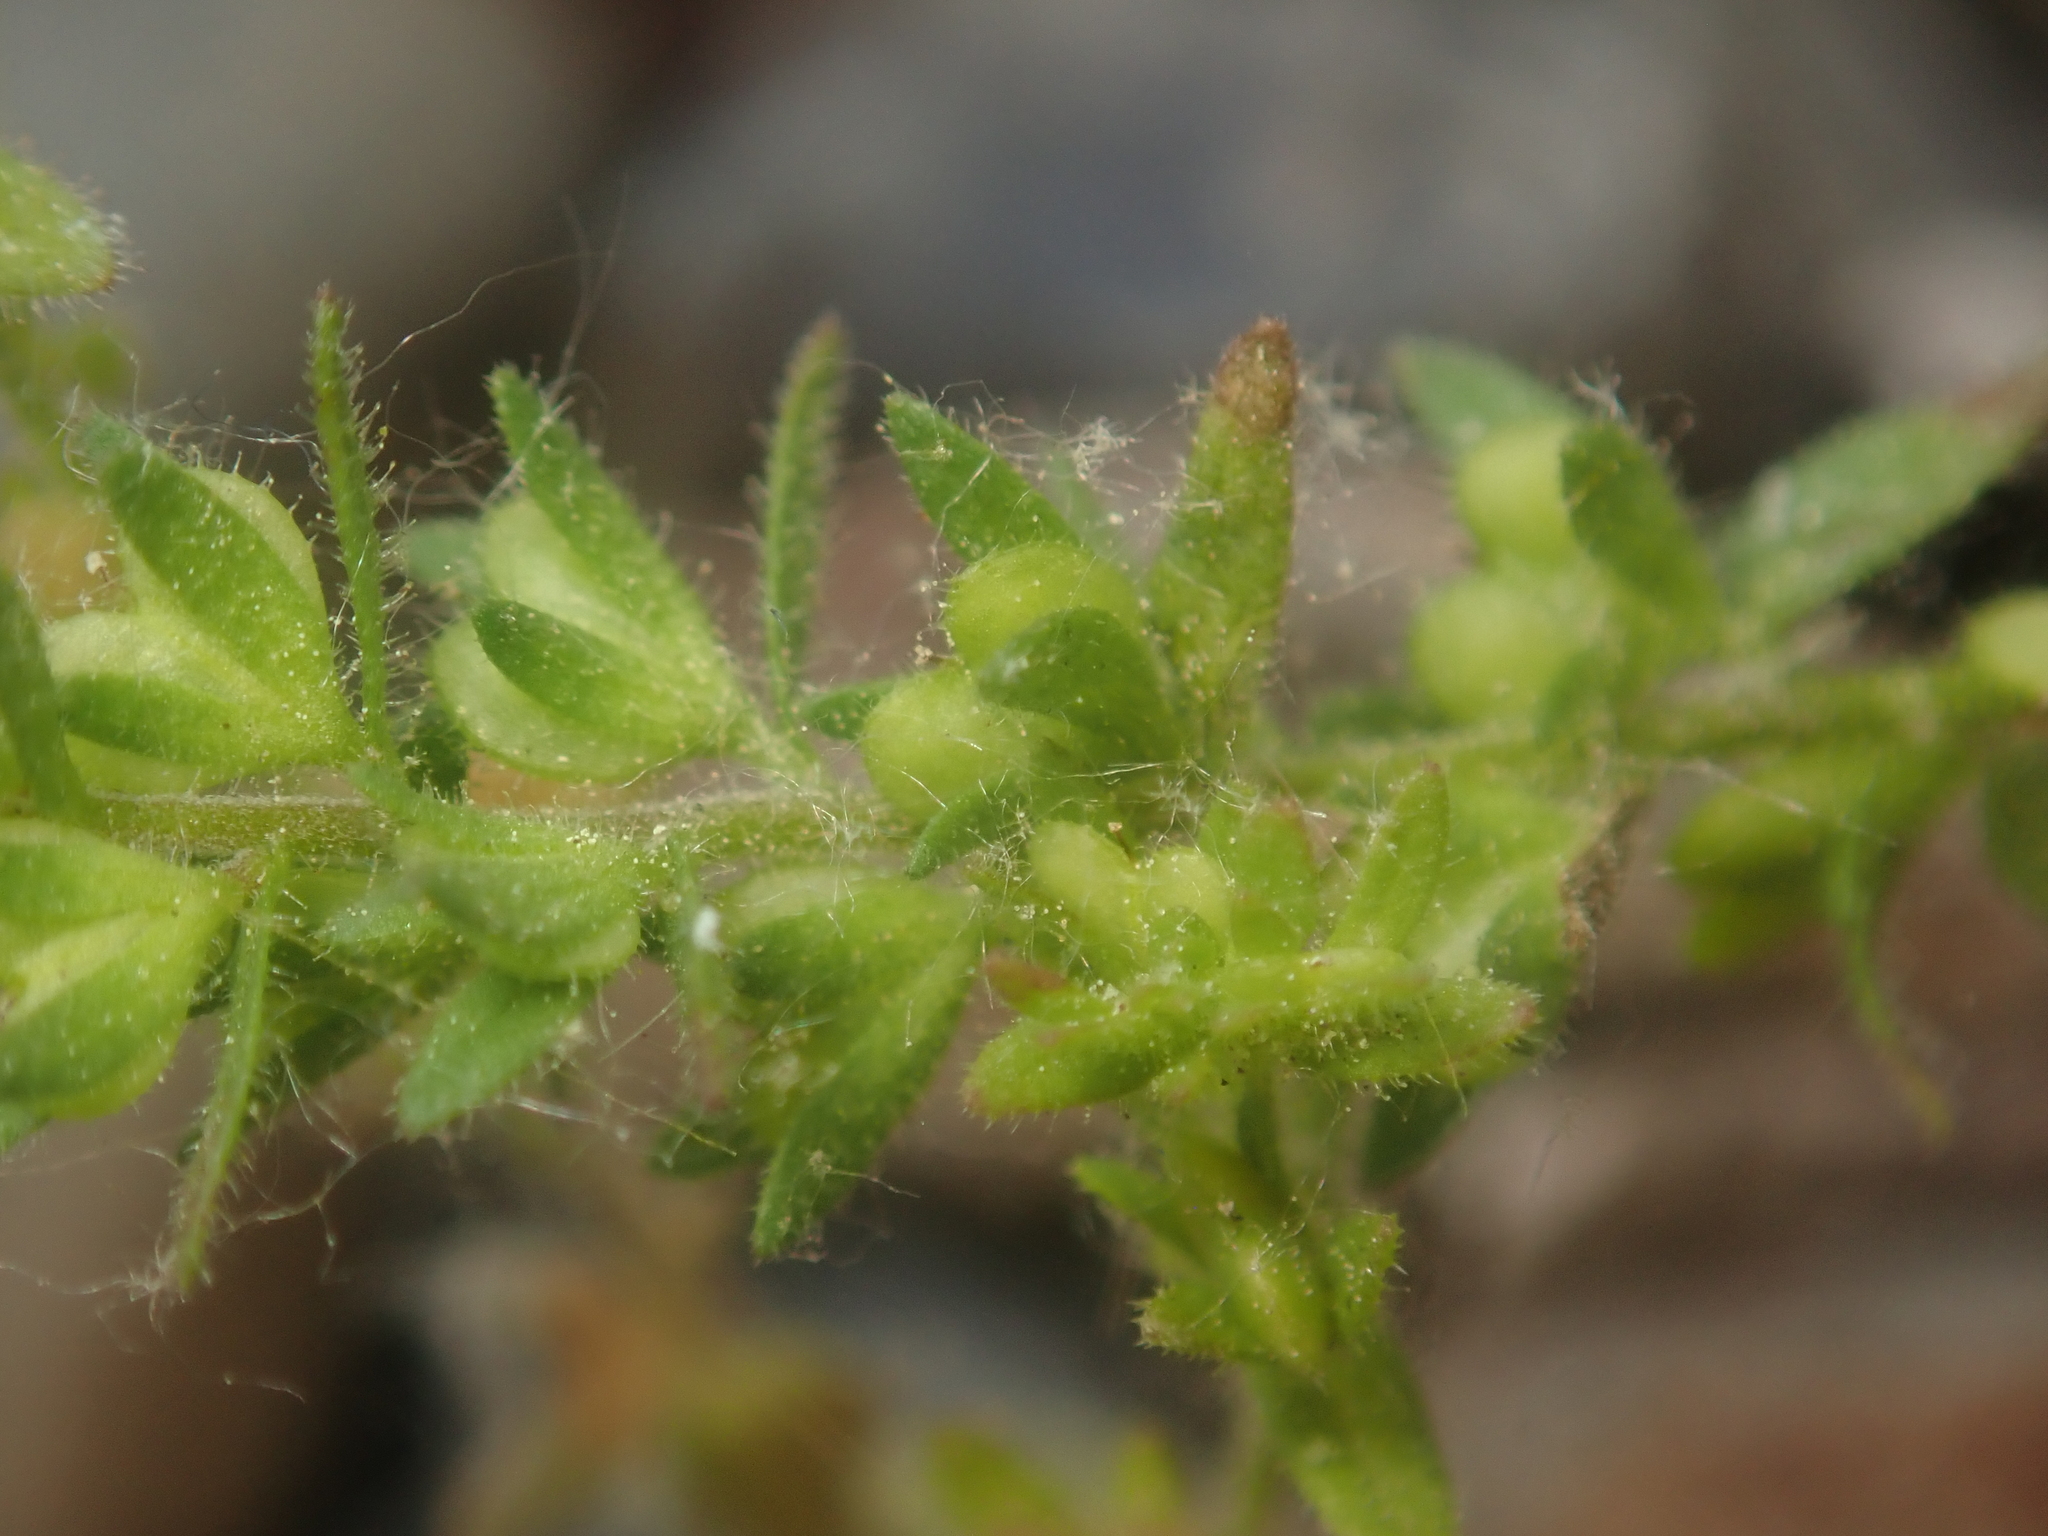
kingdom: Plantae
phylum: Tracheophyta
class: Magnoliopsida
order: Lamiales
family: Plantaginaceae
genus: Veronica
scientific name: Veronica arvensis
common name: Corn speedwell
